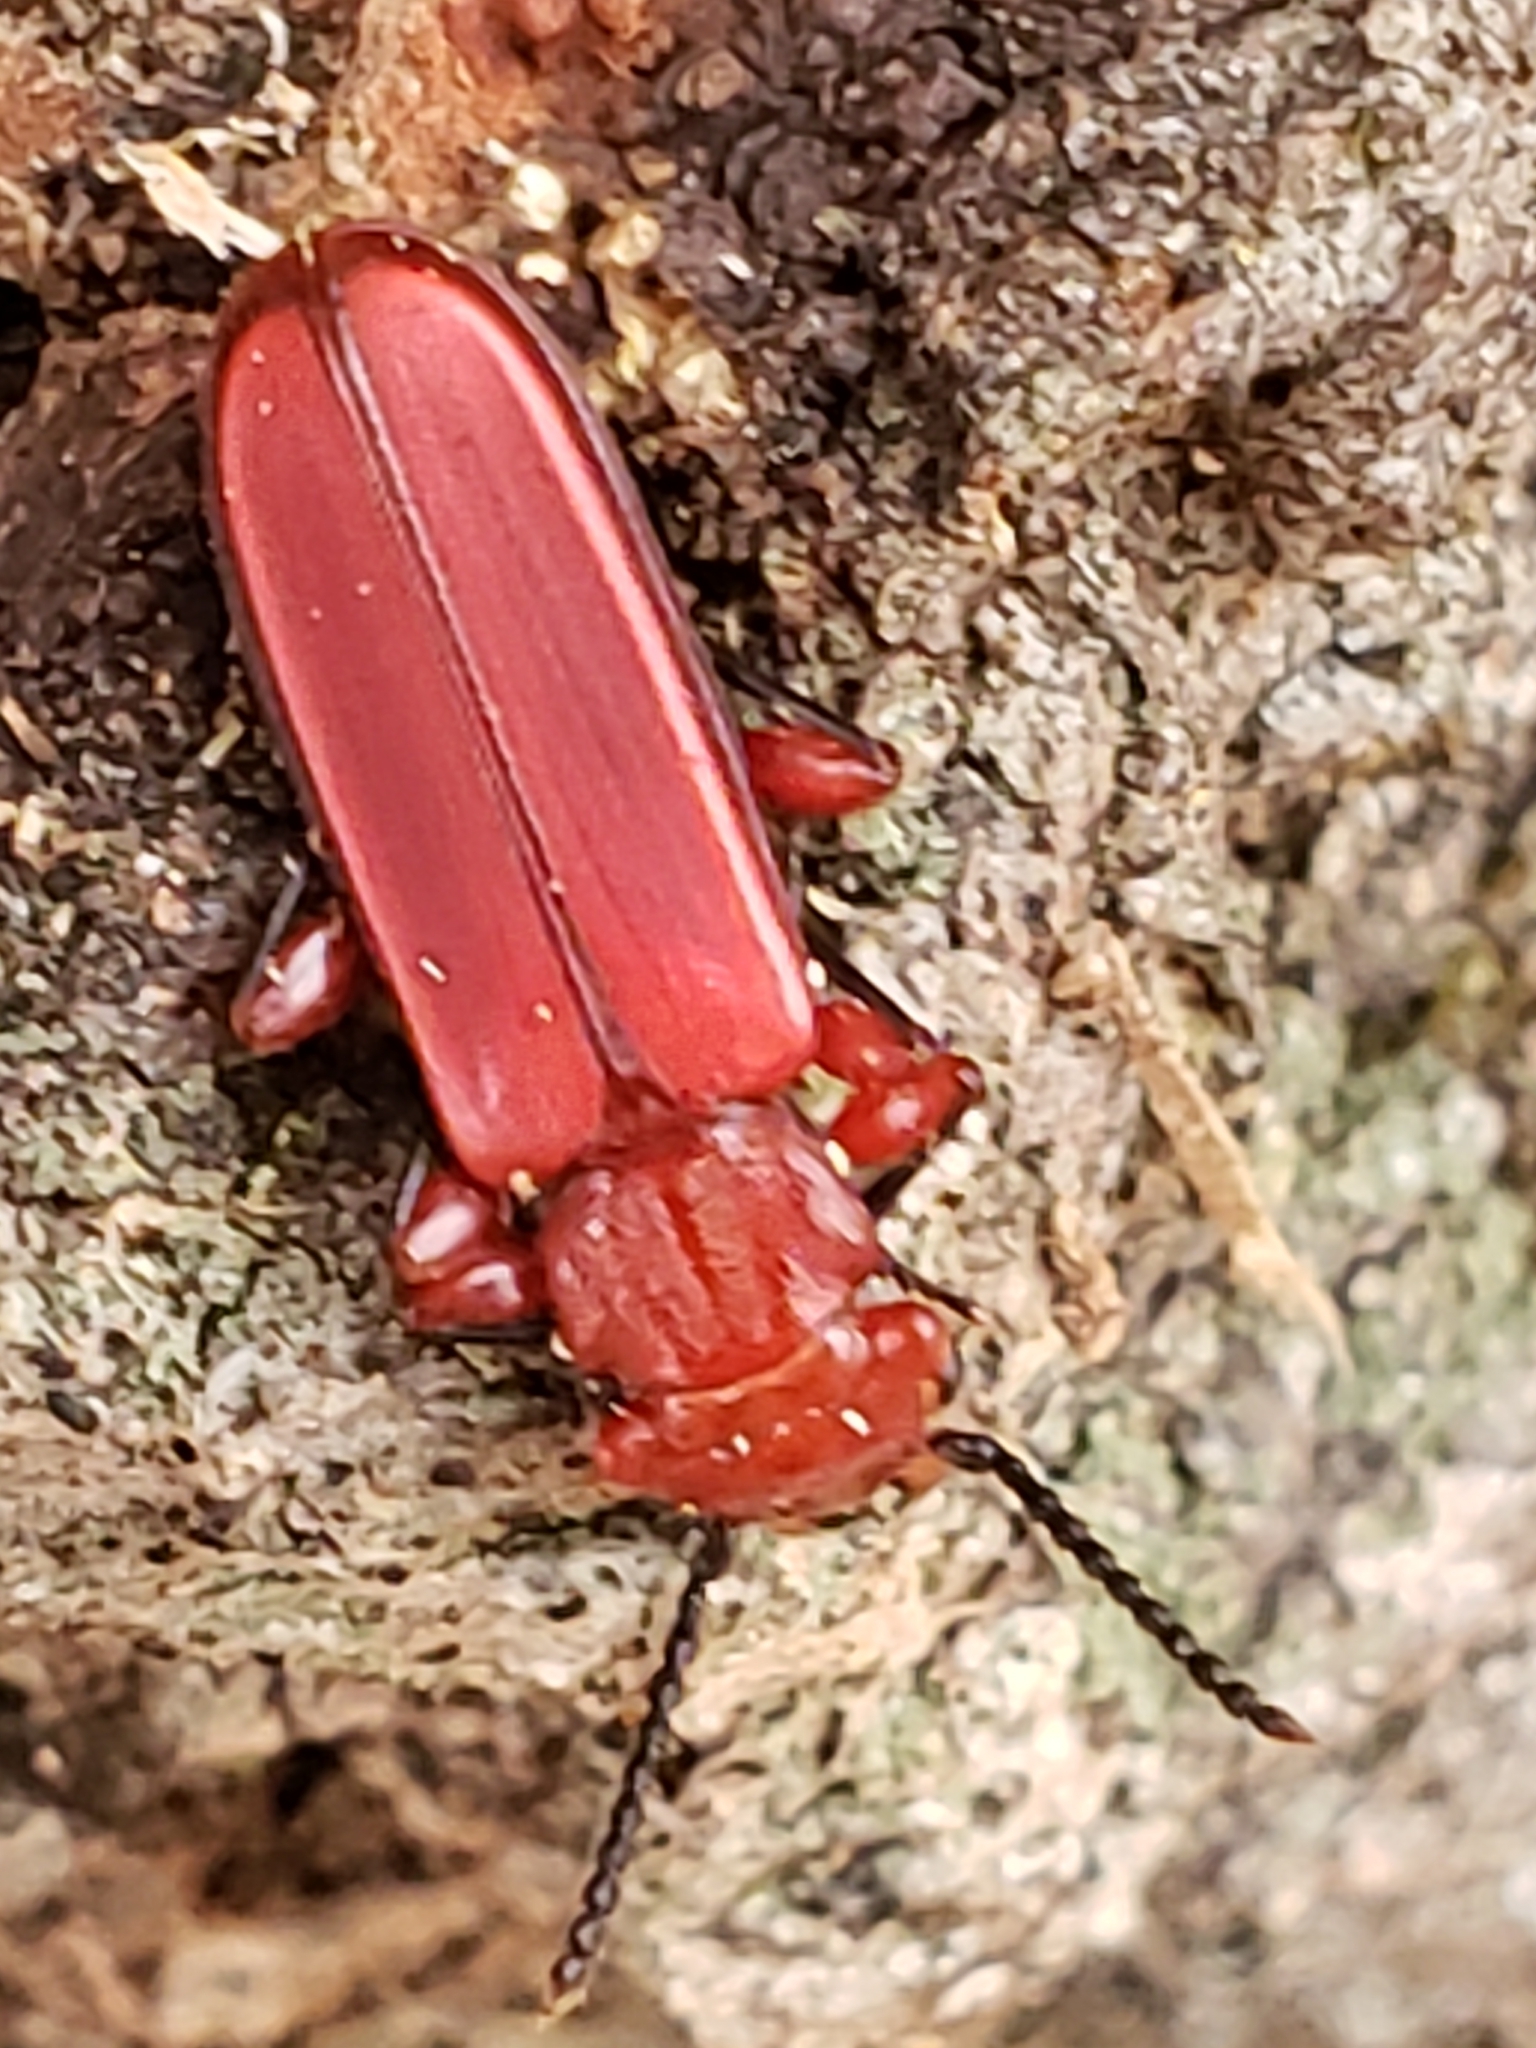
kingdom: Animalia
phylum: Arthropoda
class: Insecta
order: Coleoptera
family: Cucujidae
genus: Cucujus
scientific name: Cucujus clavipes
